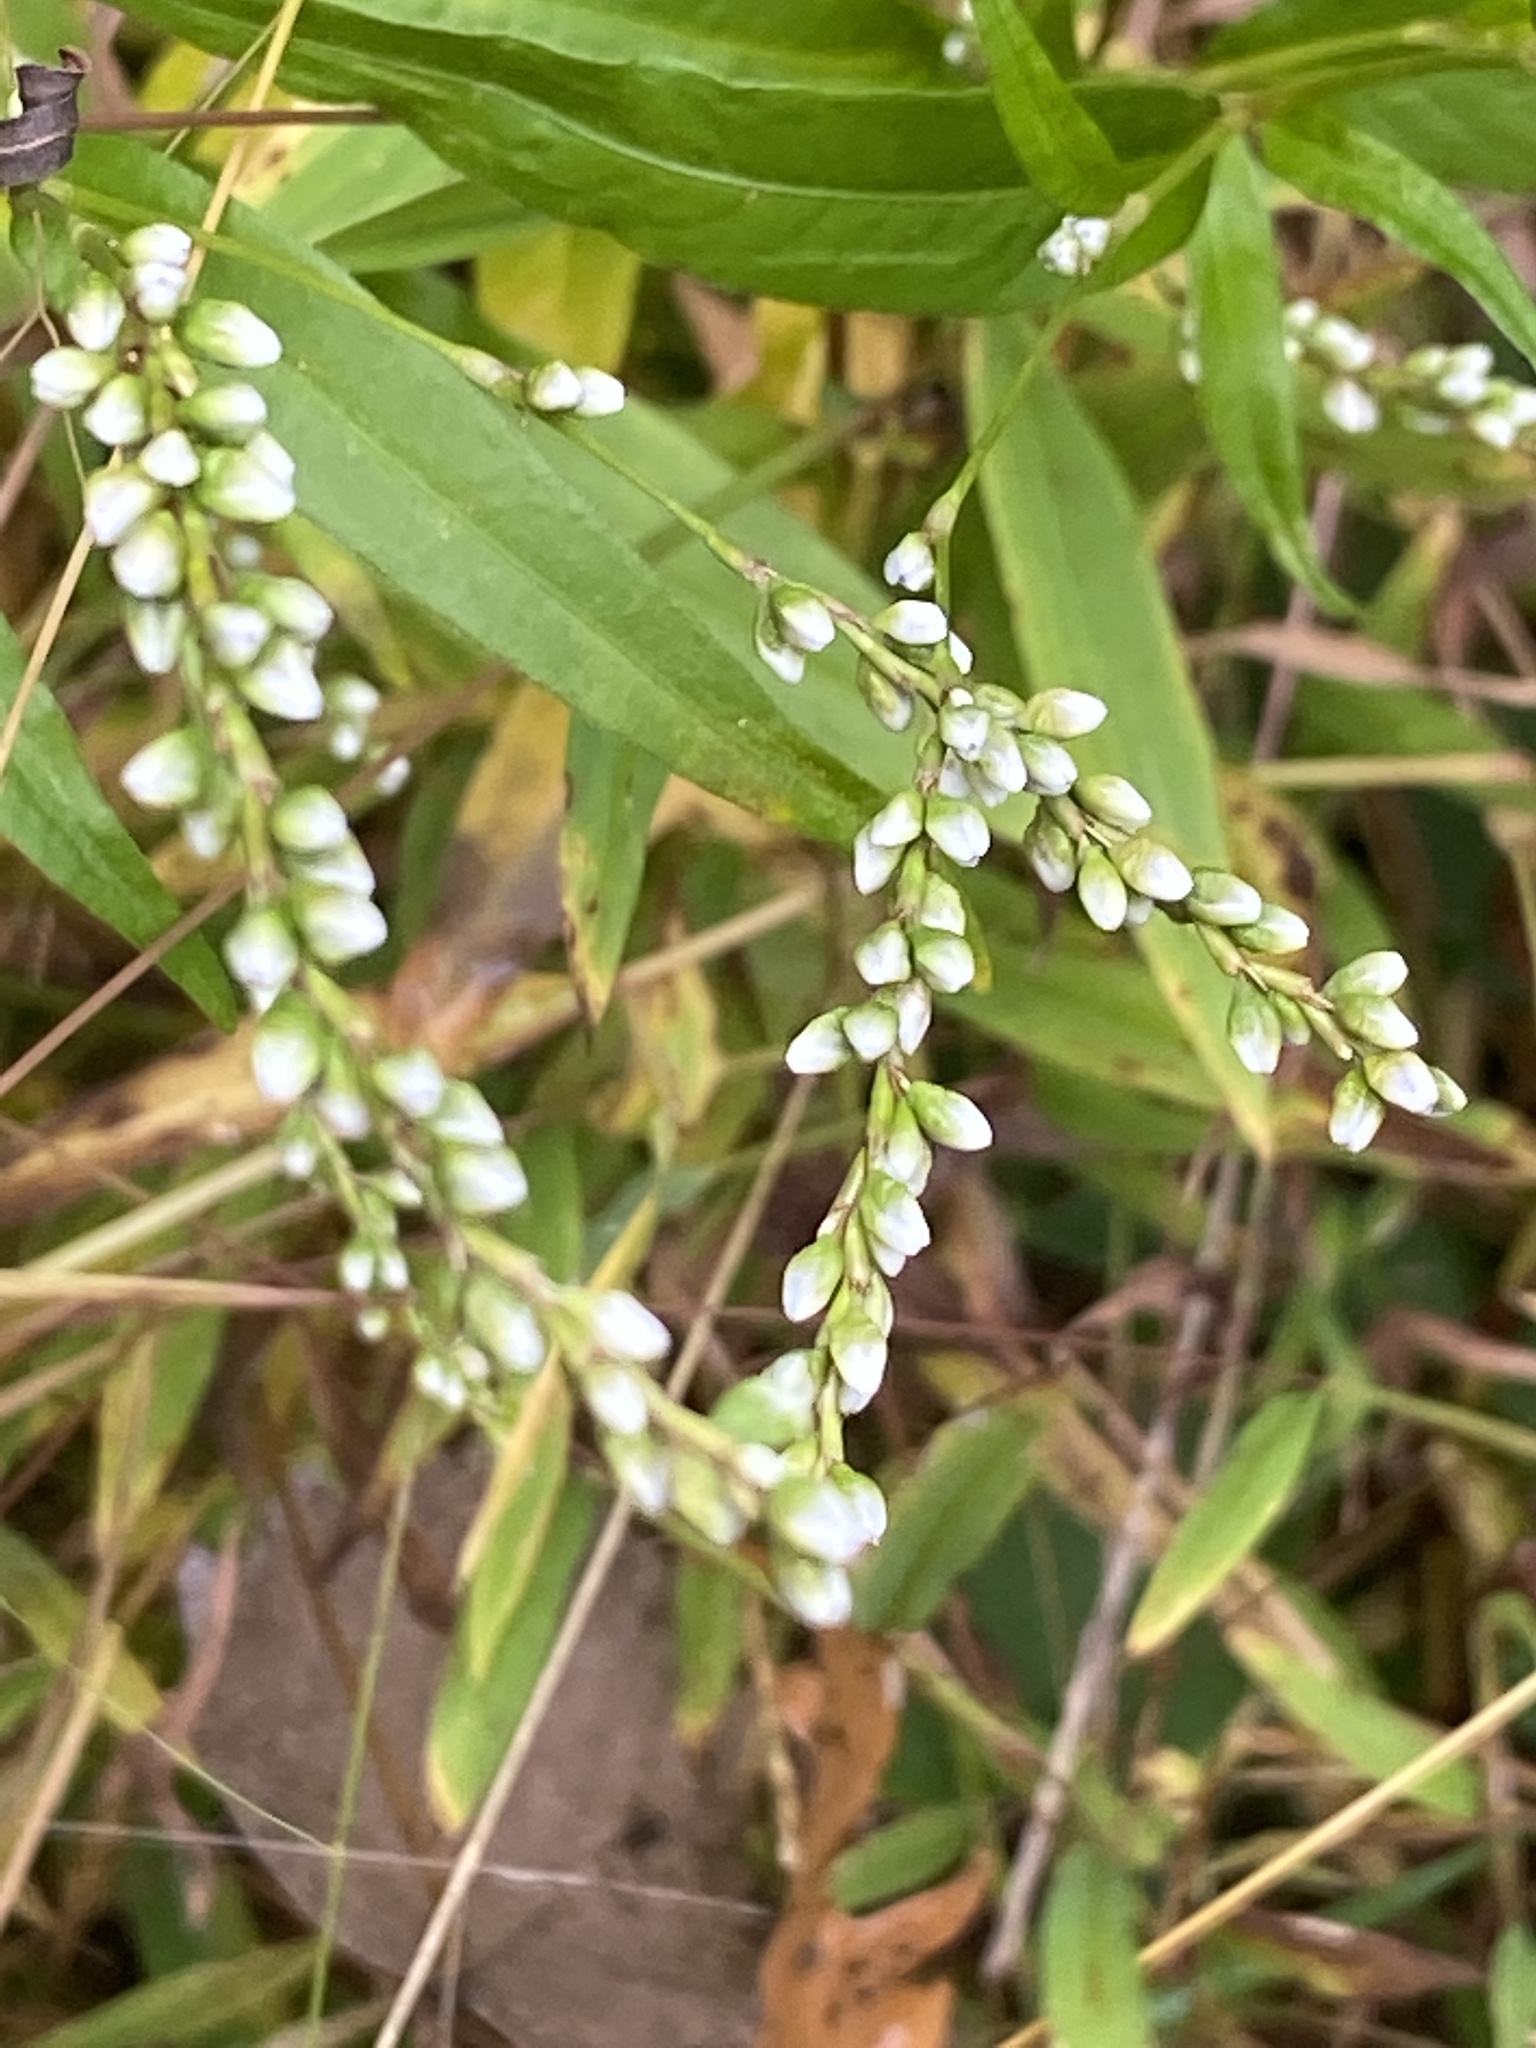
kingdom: Plantae
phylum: Tracheophyta
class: Magnoliopsida
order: Caryophyllales
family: Polygonaceae
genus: Persicaria
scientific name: Persicaria punctata
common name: Dotted smartweed
